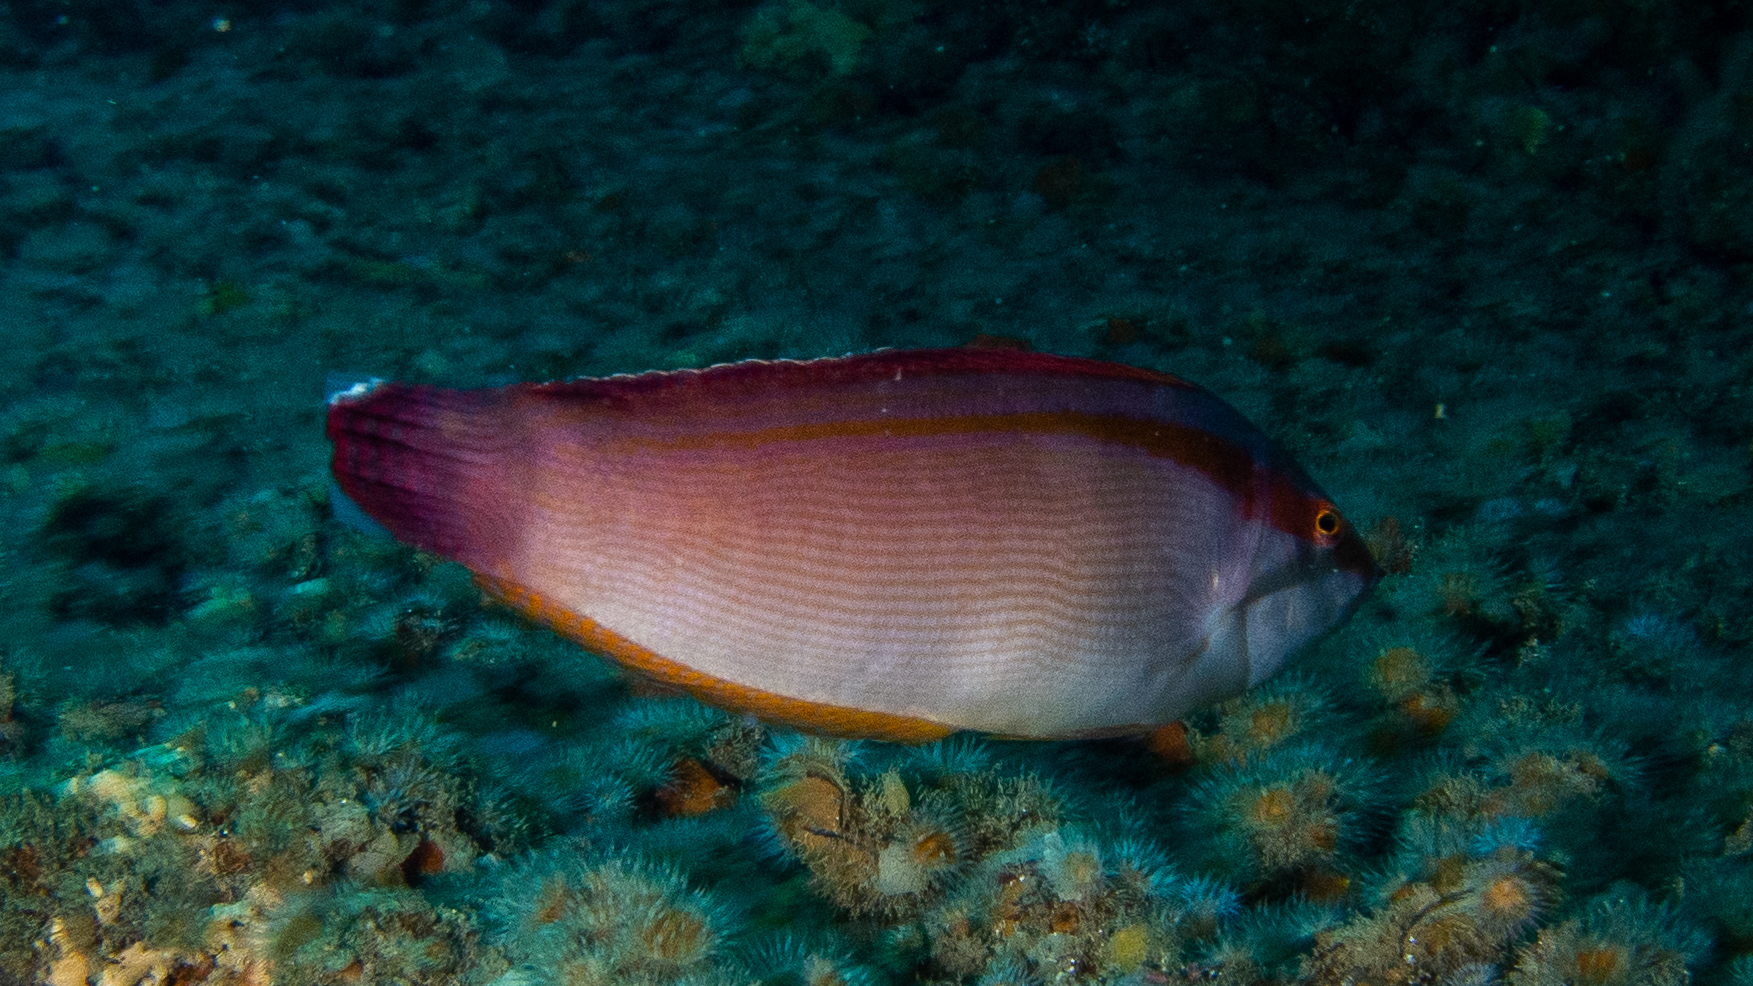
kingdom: Animalia
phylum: Chordata
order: Perciformes
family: Labridae
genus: Coris
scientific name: Coris auricularis
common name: Western king wrasse
